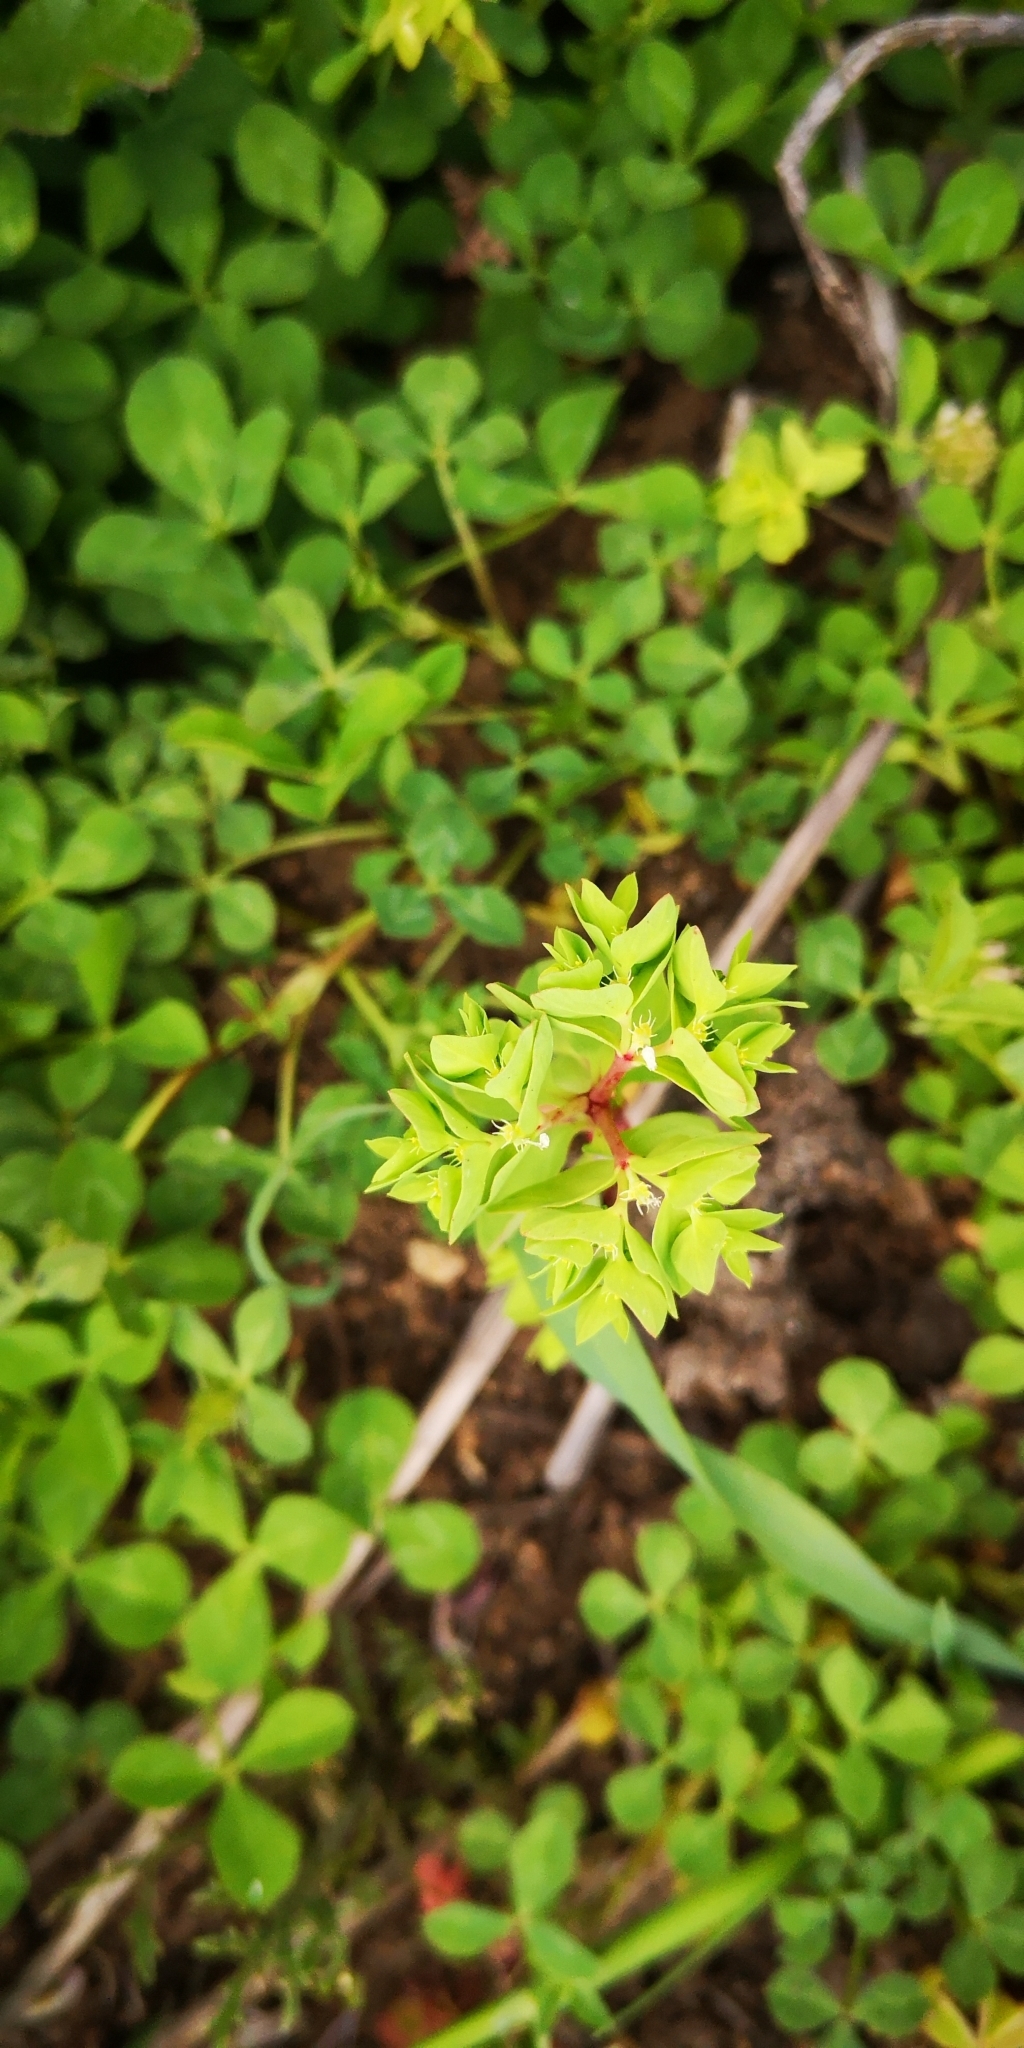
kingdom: Plantae
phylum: Tracheophyta
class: Magnoliopsida
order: Malpighiales
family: Euphorbiaceae
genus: Euphorbia
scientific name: Euphorbia peplus
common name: Petty spurge
